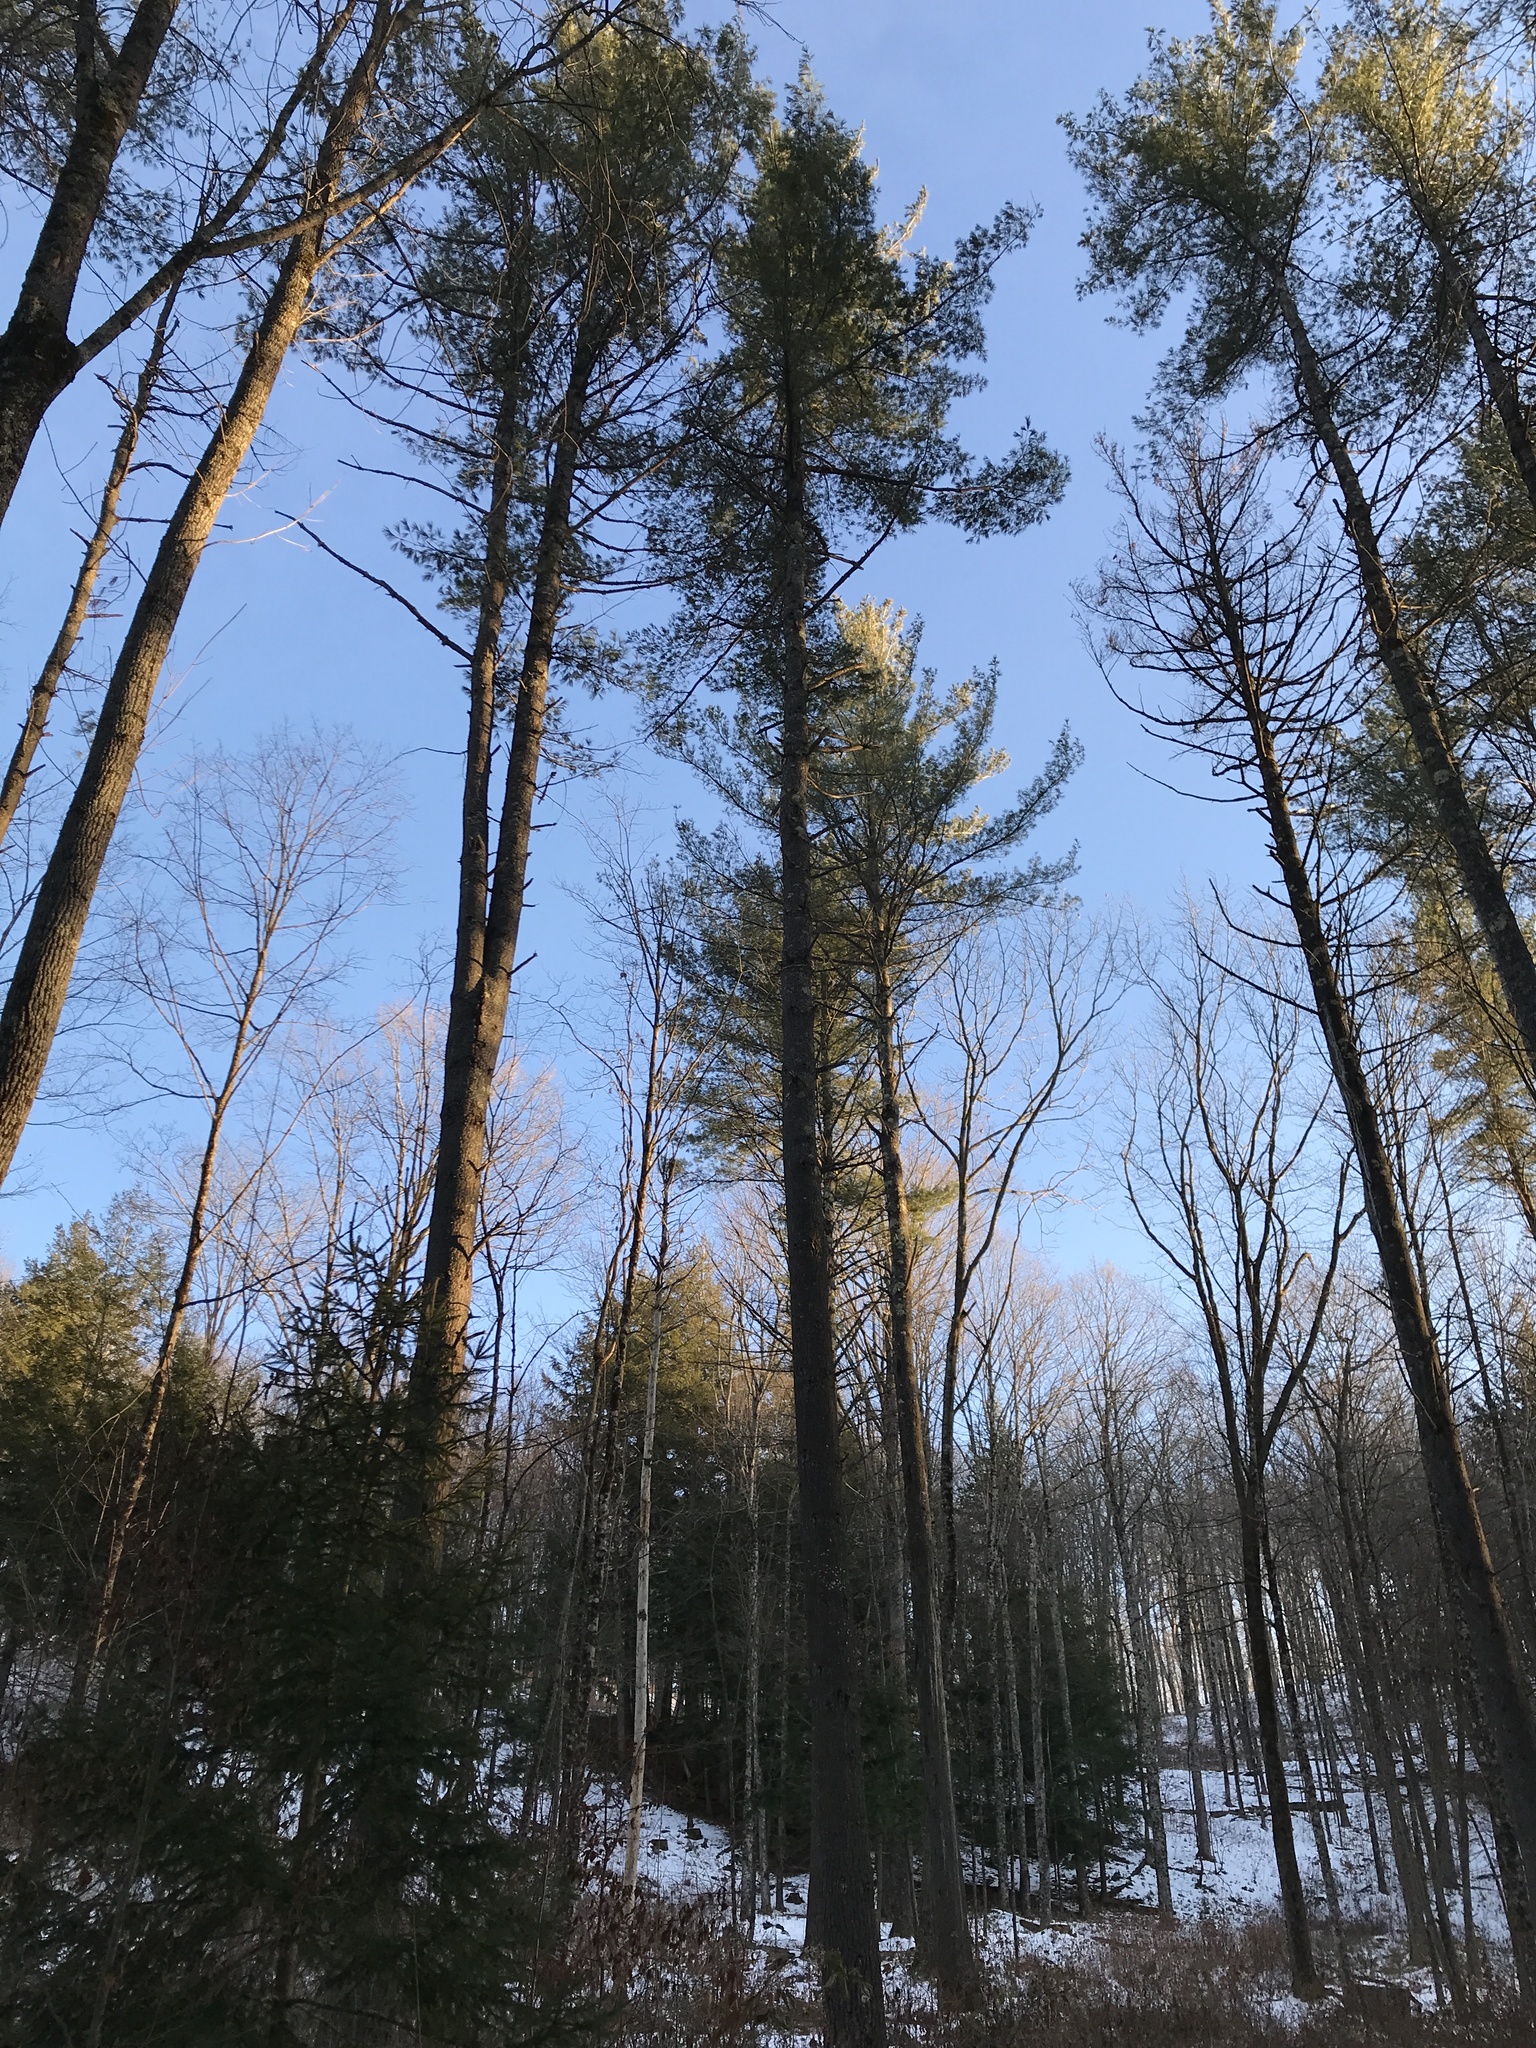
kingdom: Plantae
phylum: Tracheophyta
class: Pinopsida
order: Pinales
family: Pinaceae
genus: Pinus
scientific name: Pinus strobus
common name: Weymouth pine
